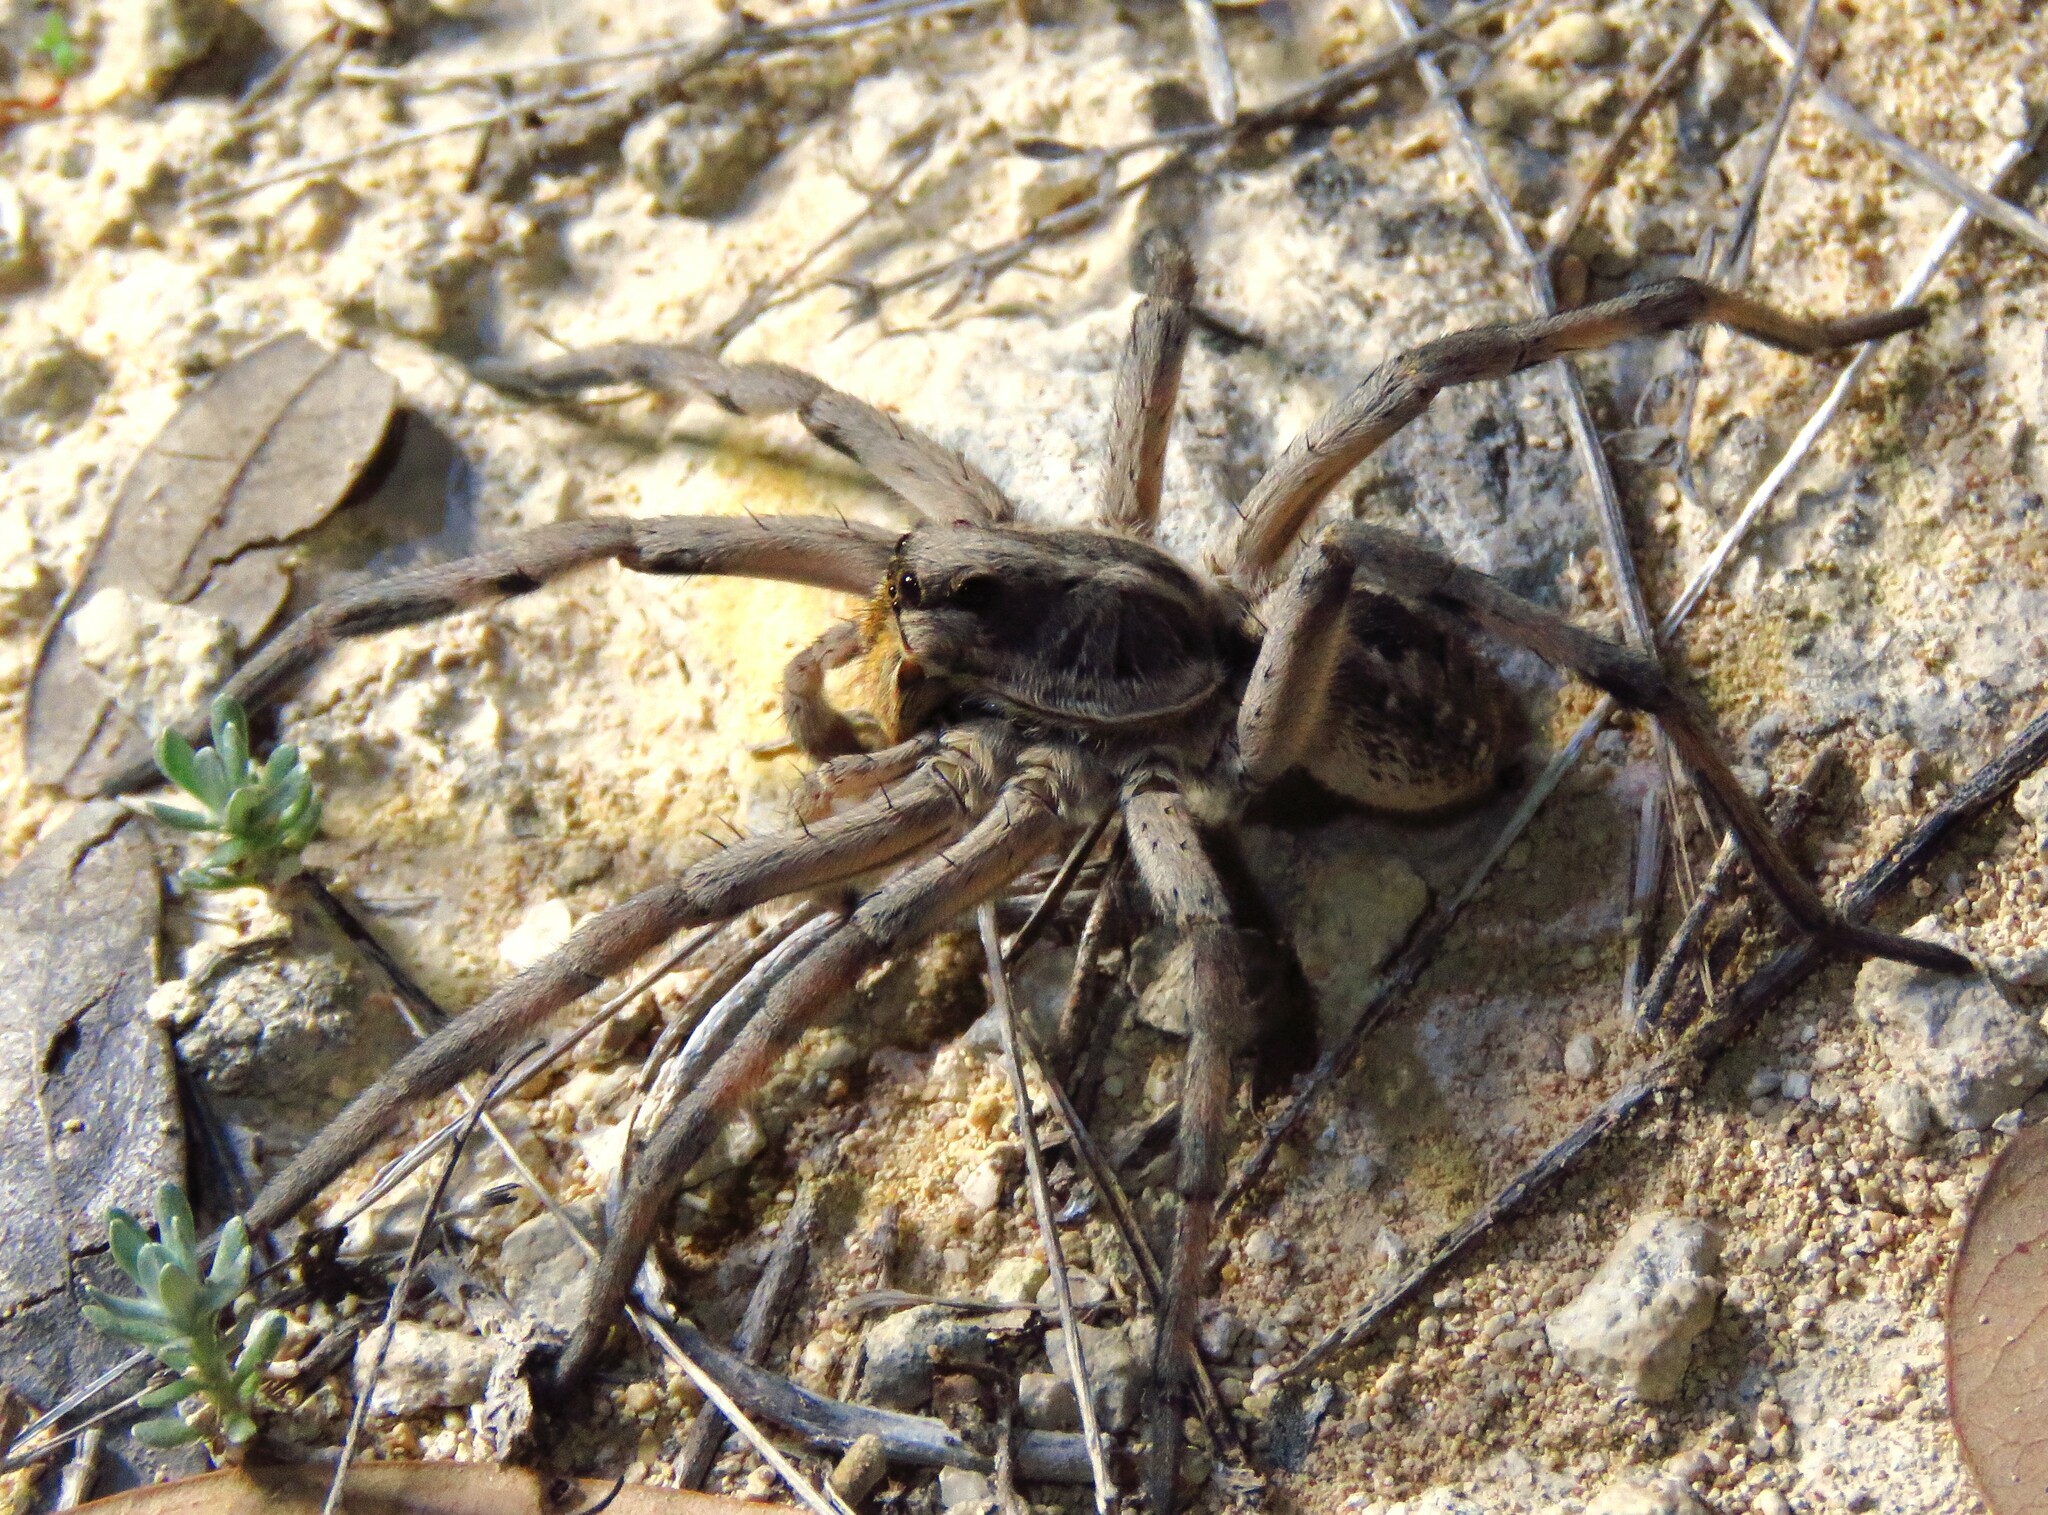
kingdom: Animalia
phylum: Arthropoda
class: Arachnida
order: Araneae
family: Lycosidae
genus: Hogna
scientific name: Hogna carolinensis
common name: Carolina wolf spider
